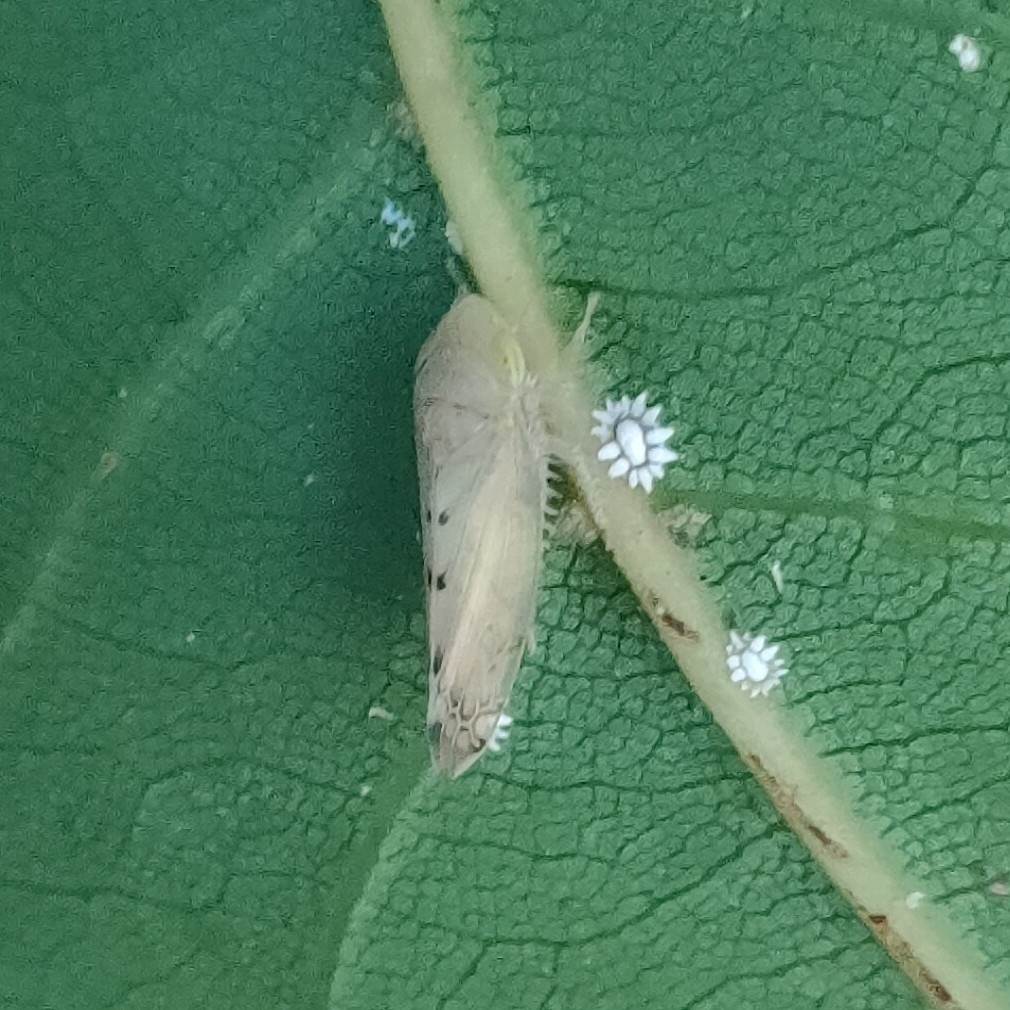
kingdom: Animalia
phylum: Arthropoda
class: Insecta
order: Hemiptera
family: Cicadellidae
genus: Synophropsis
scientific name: Synophropsis lauri
